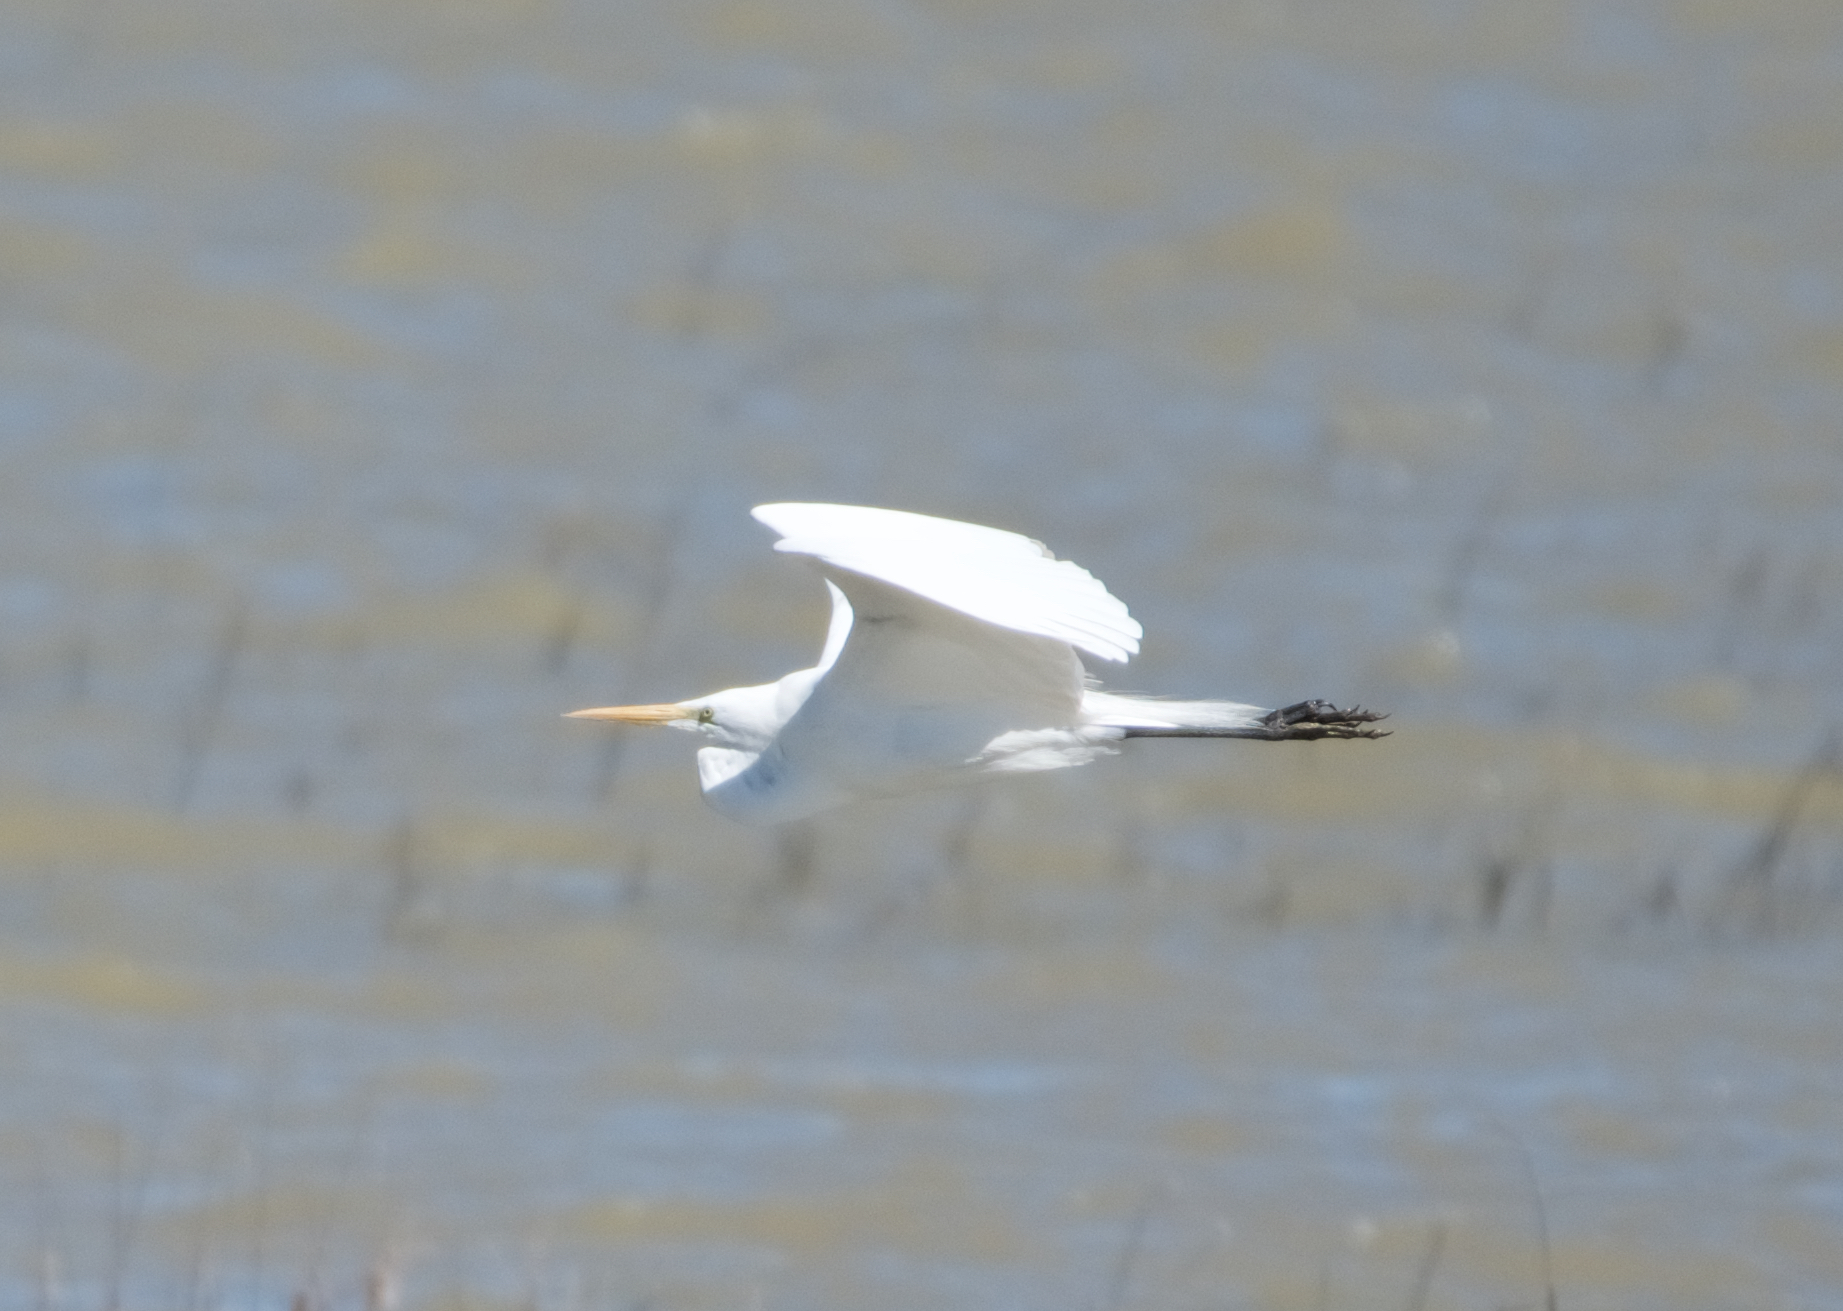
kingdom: Animalia
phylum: Chordata
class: Aves
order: Pelecaniformes
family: Ardeidae
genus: Ardea
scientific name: Ardea alba
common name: Great egret
